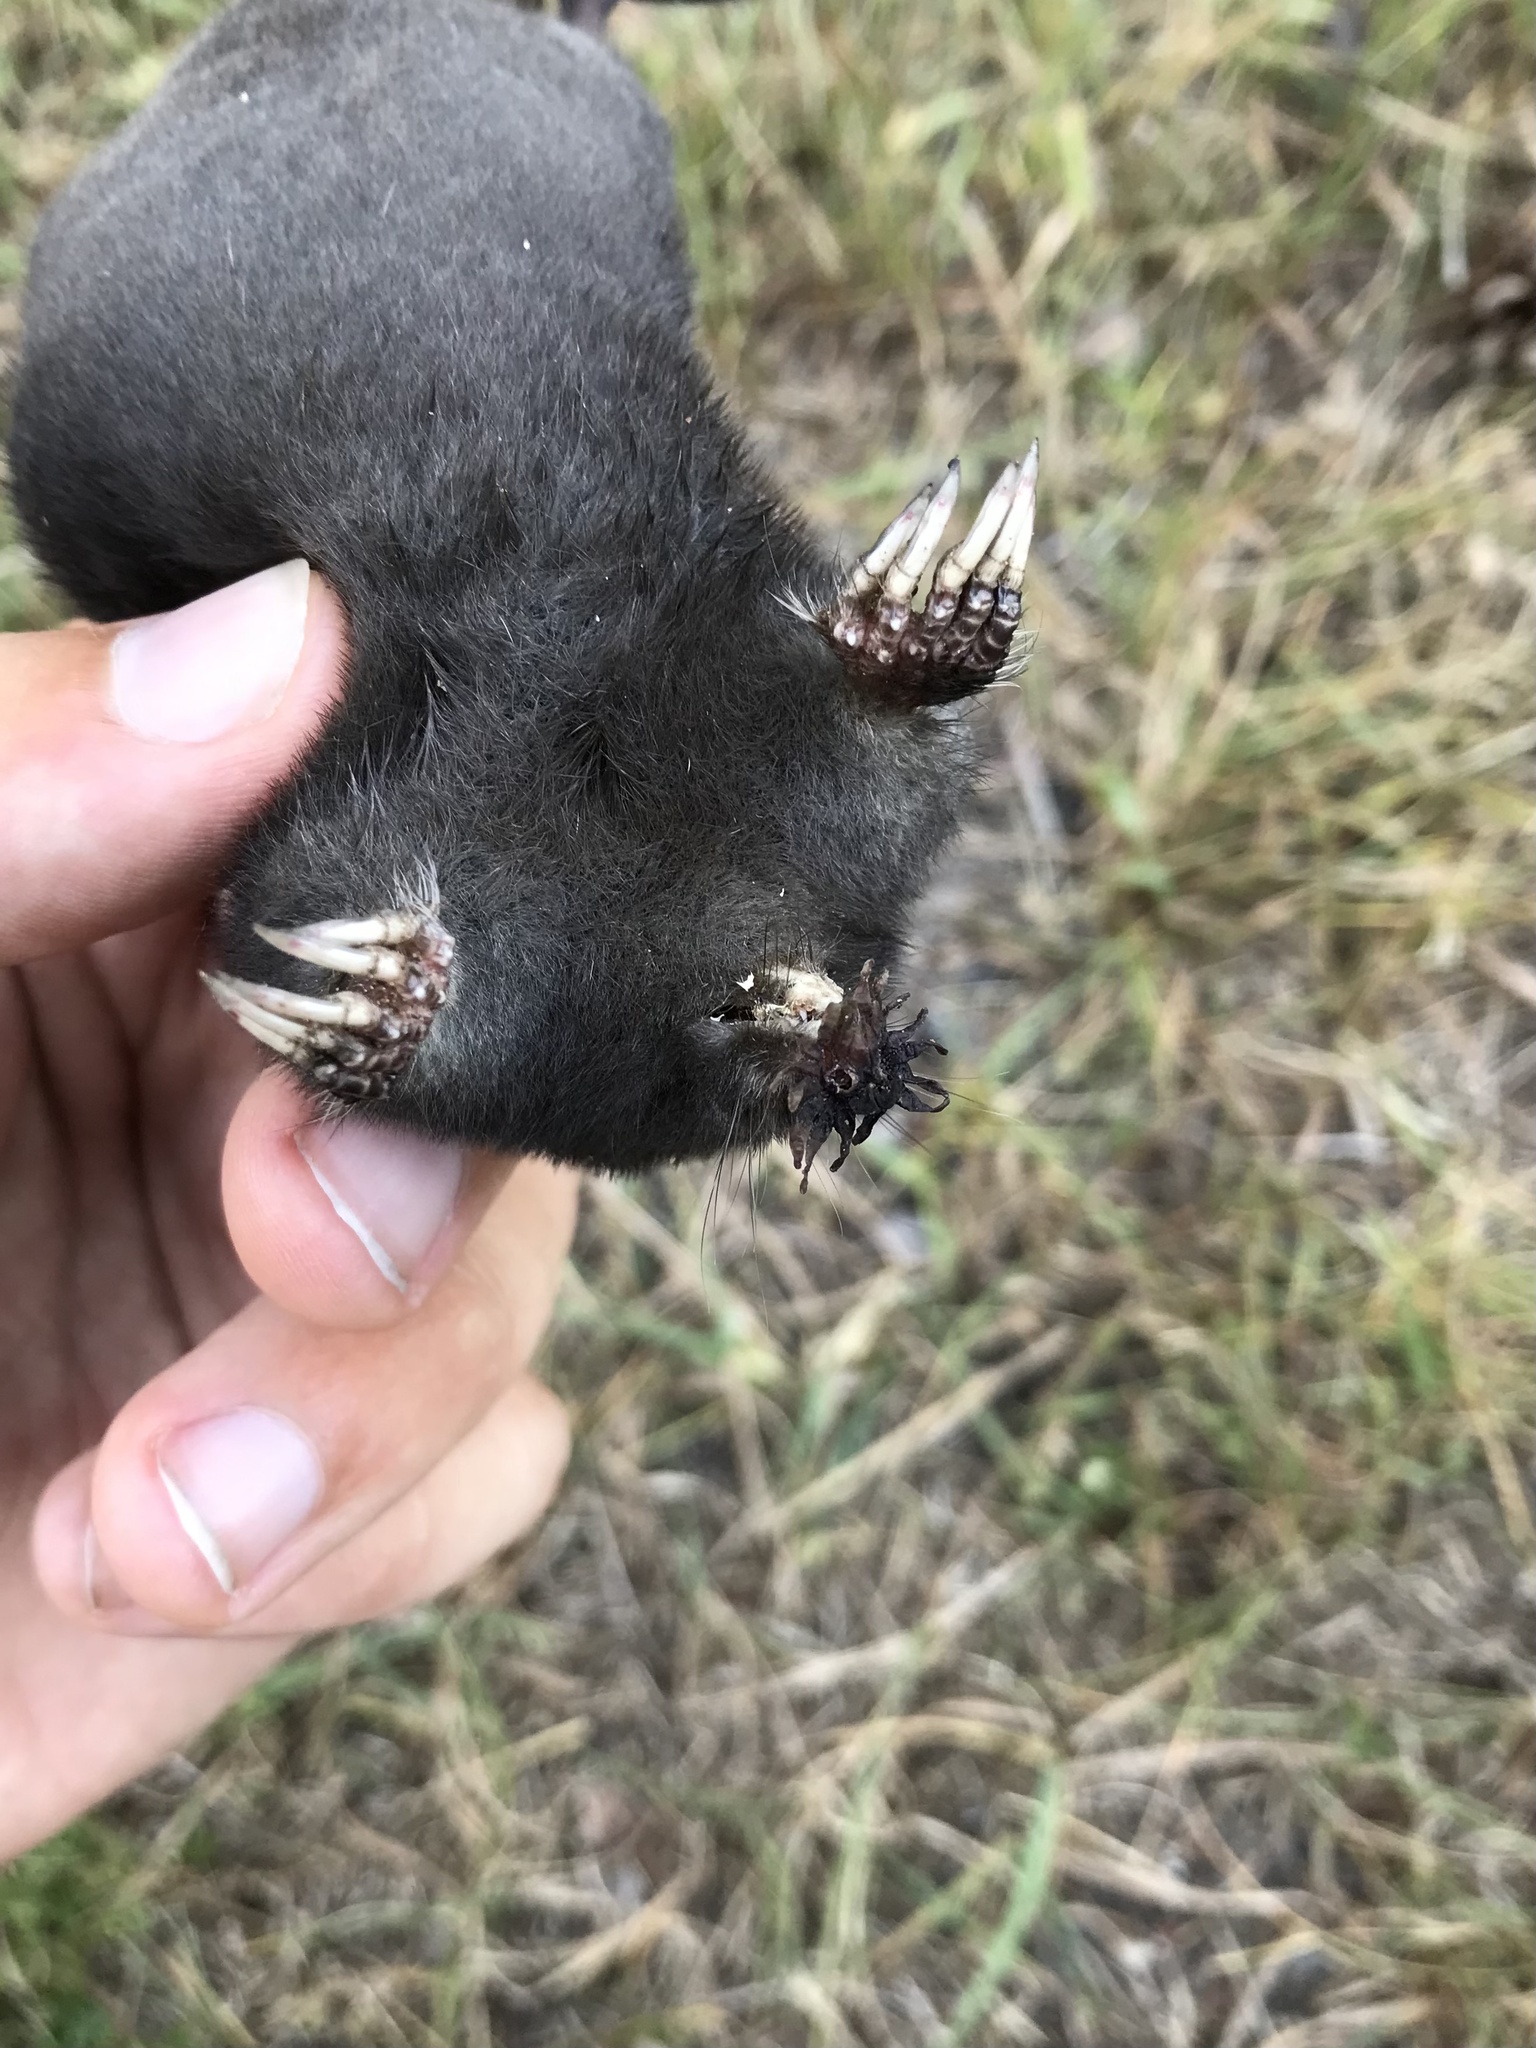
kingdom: Animalia
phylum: Chordata
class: Mammalia
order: Soricomorpha
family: Talpidae
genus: Condylura
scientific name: Condylura cristata
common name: Star-nosed mole
